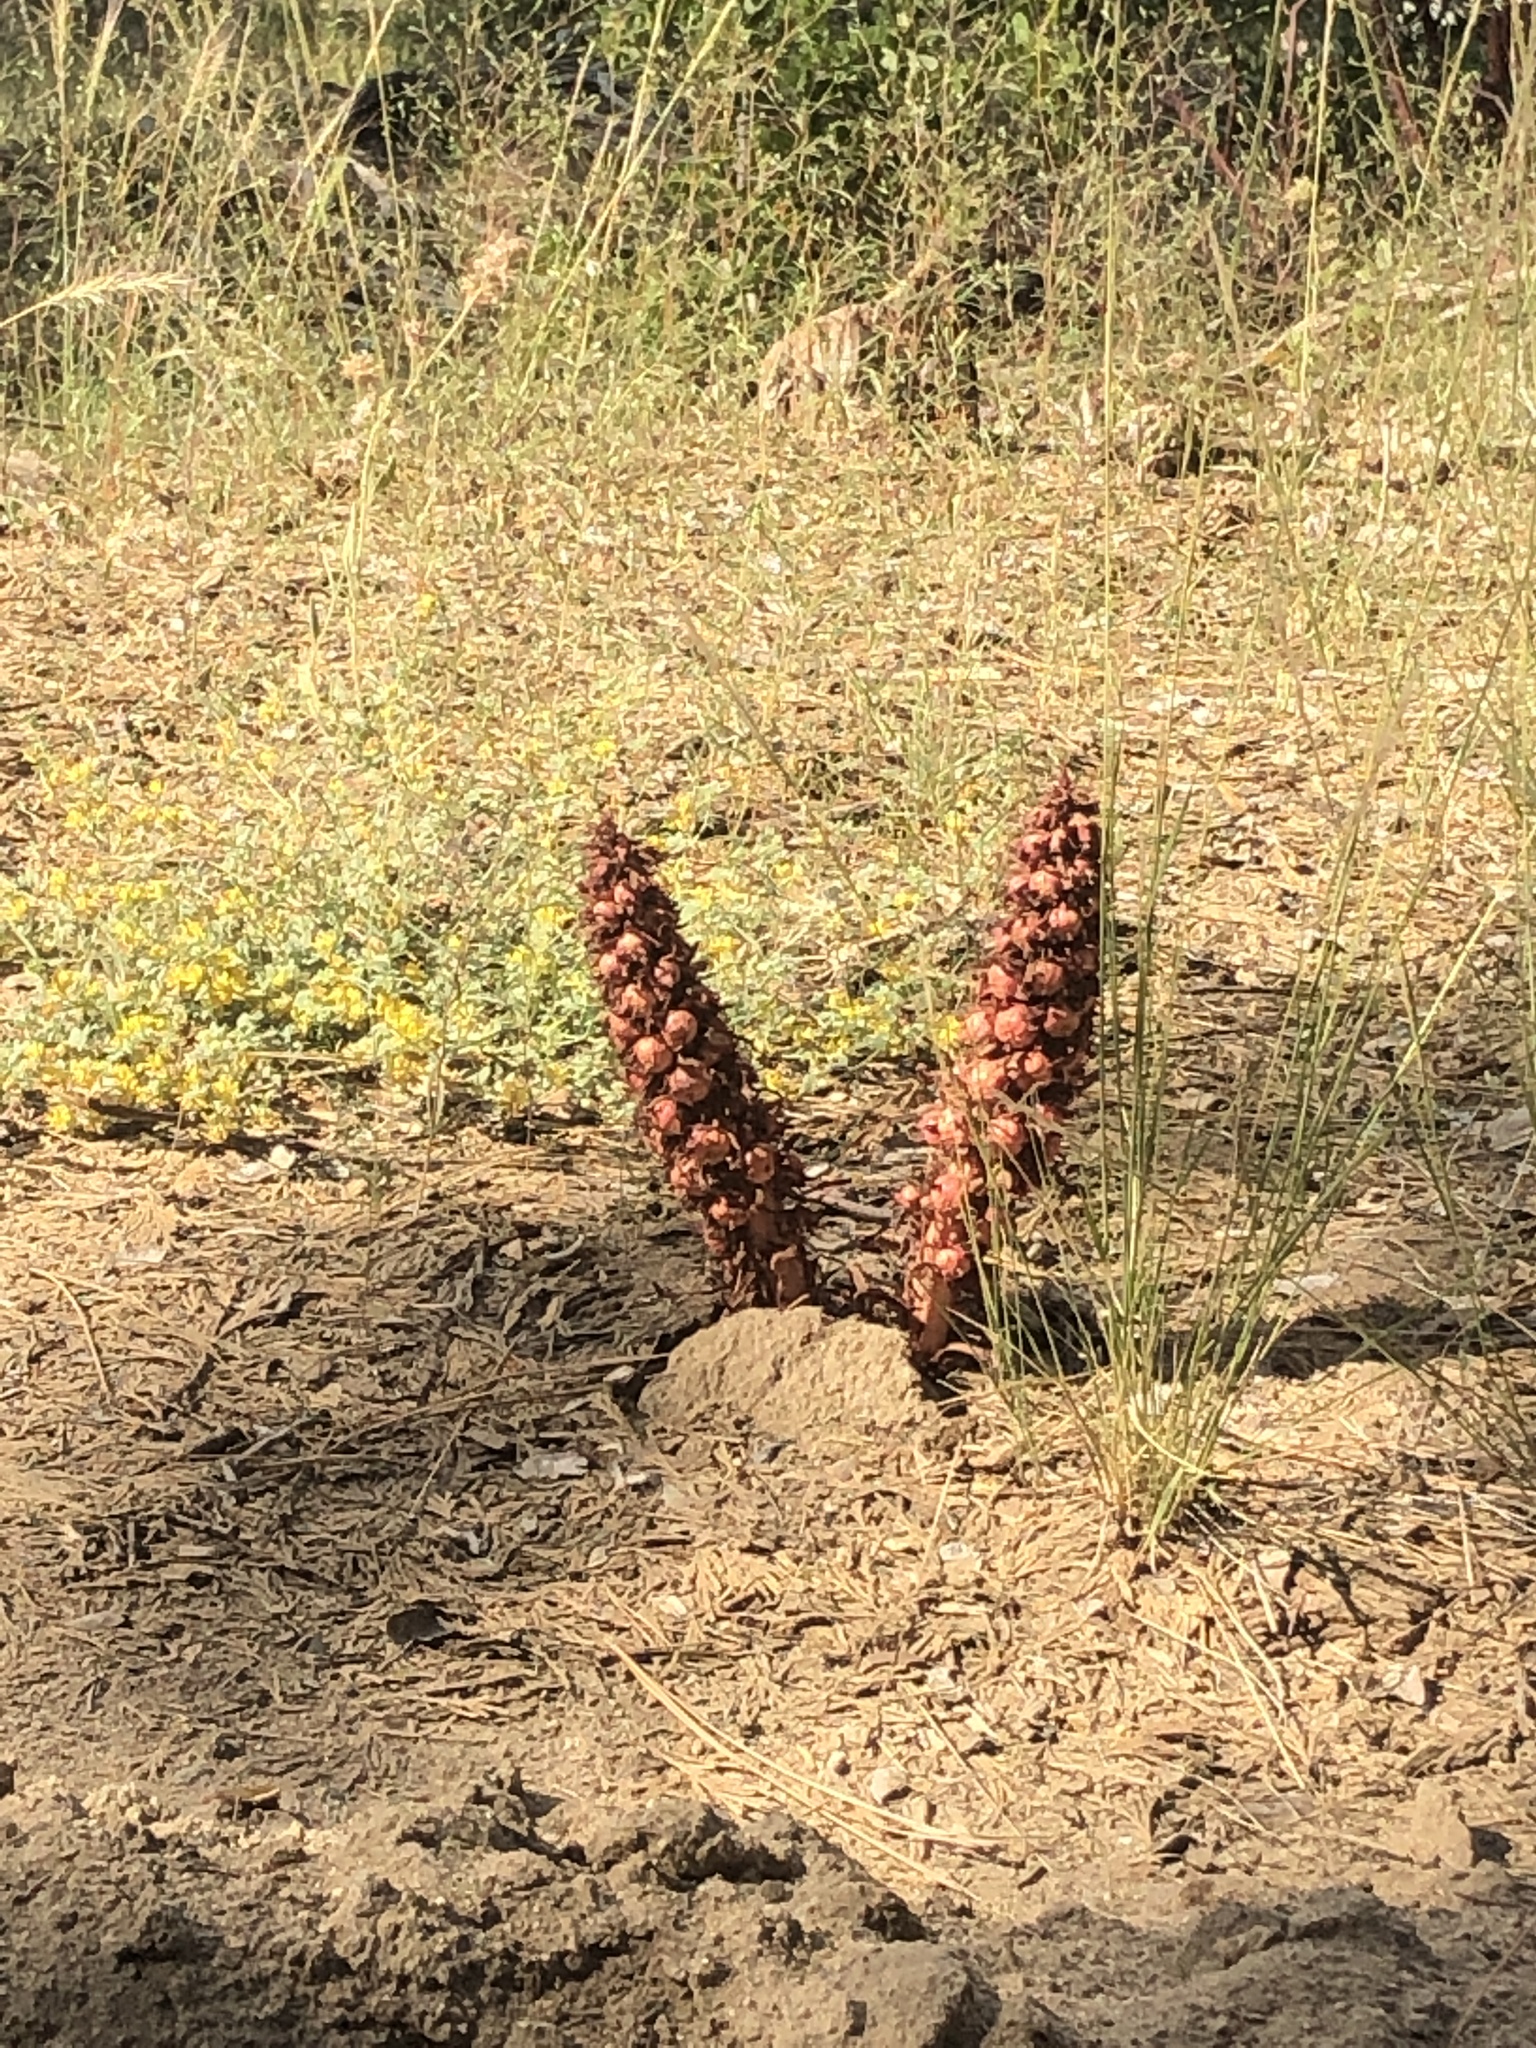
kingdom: Plantae
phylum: Tracheophyta
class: Magnoliopsida
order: Ericales
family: Ericaceae
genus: Sarcodes
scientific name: Sarcodes sanguinea
